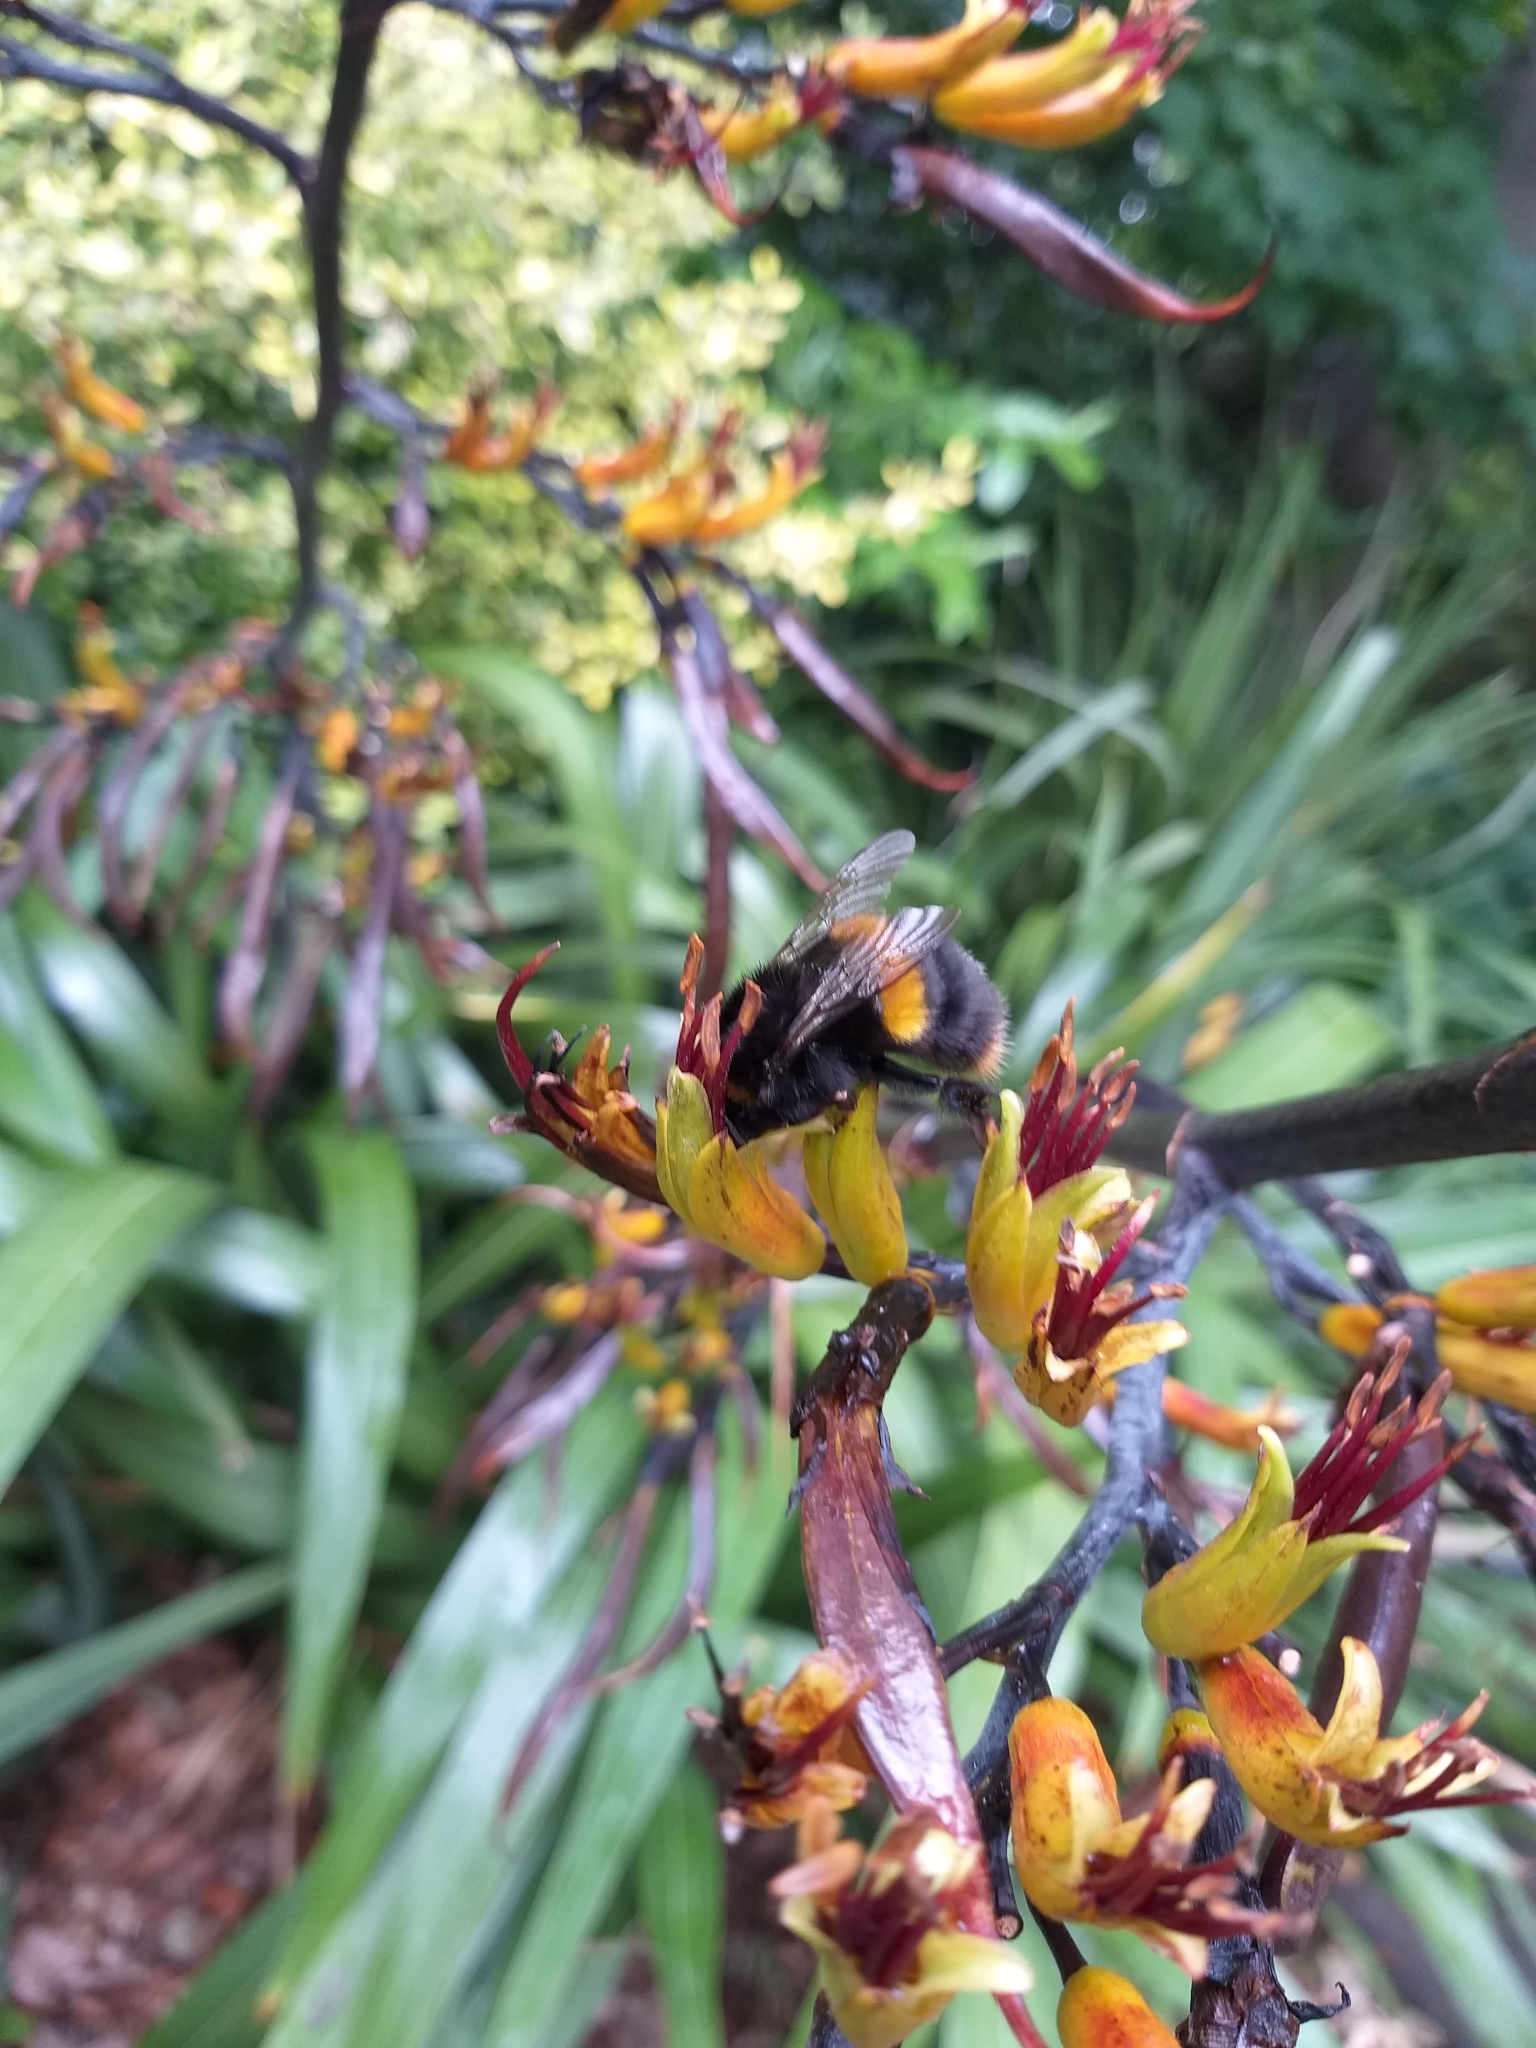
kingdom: Plantae
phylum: Tracheophyta
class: Liliopsida
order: Asparagales
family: Asphodelaceae
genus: Phormium
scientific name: Phormium colensoi
